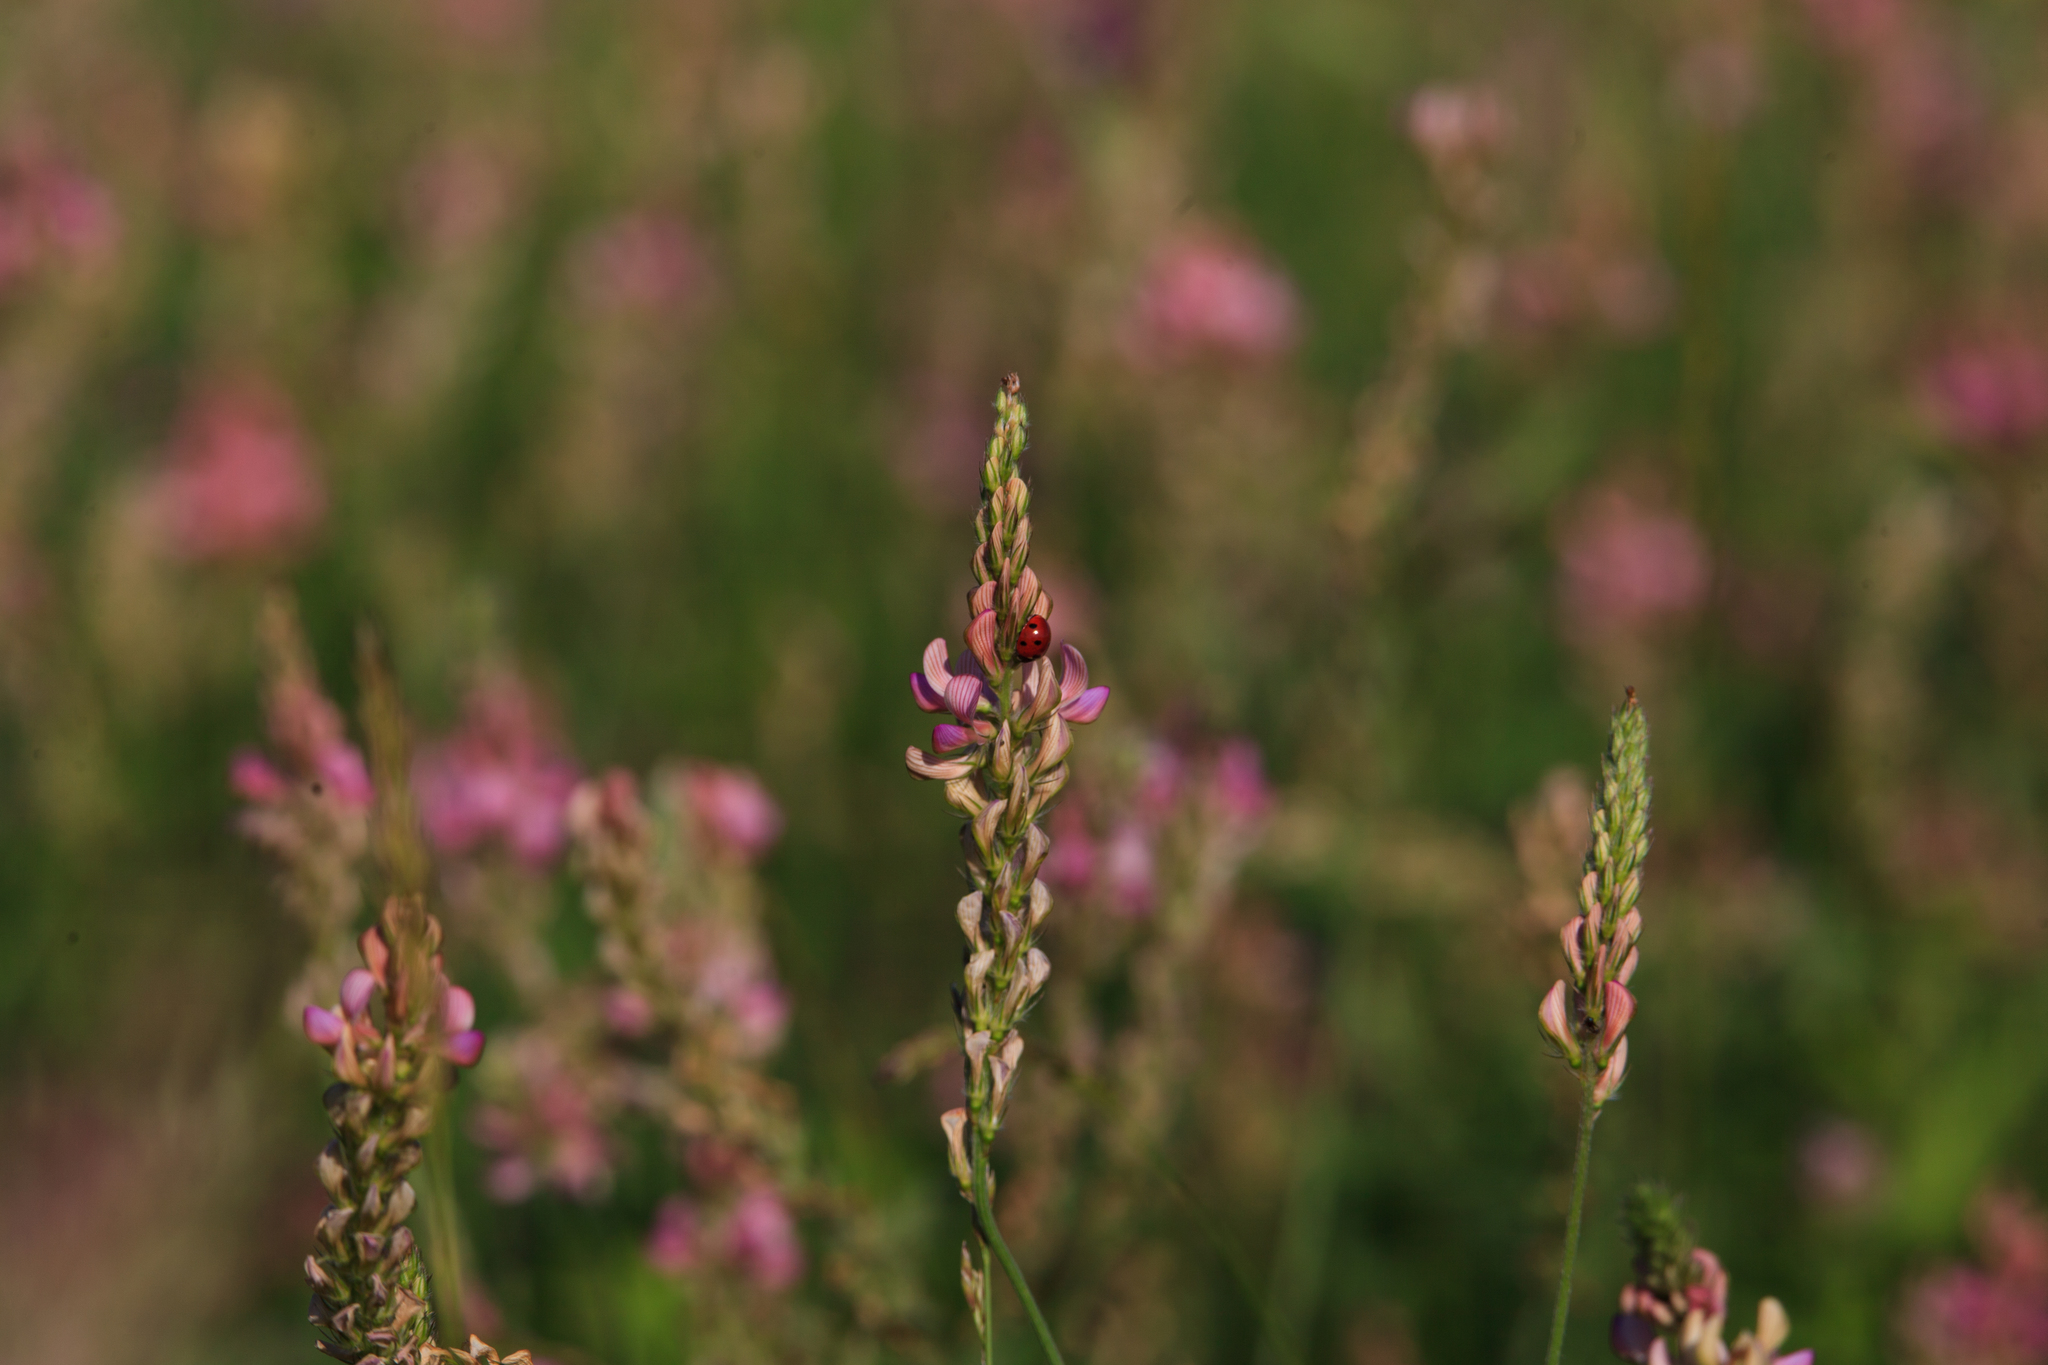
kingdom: Plantae
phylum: Tracheophyta
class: Magnoliopsida
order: Fabales
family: Fabaceae
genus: Onobrychis
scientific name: Onobrychis viciifolia
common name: Sainfoin
